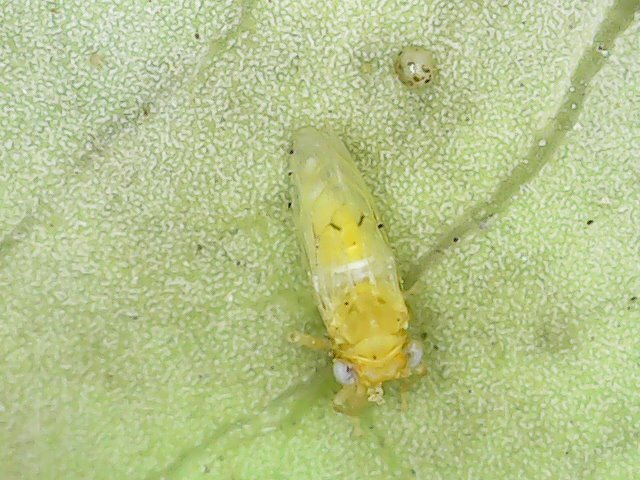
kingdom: Animalia
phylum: Arthropoda
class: Insecta
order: Hemiptera
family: Phacopteronidae
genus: Pseudophacopteron
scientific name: Pseudophacopteron tuberculatum
